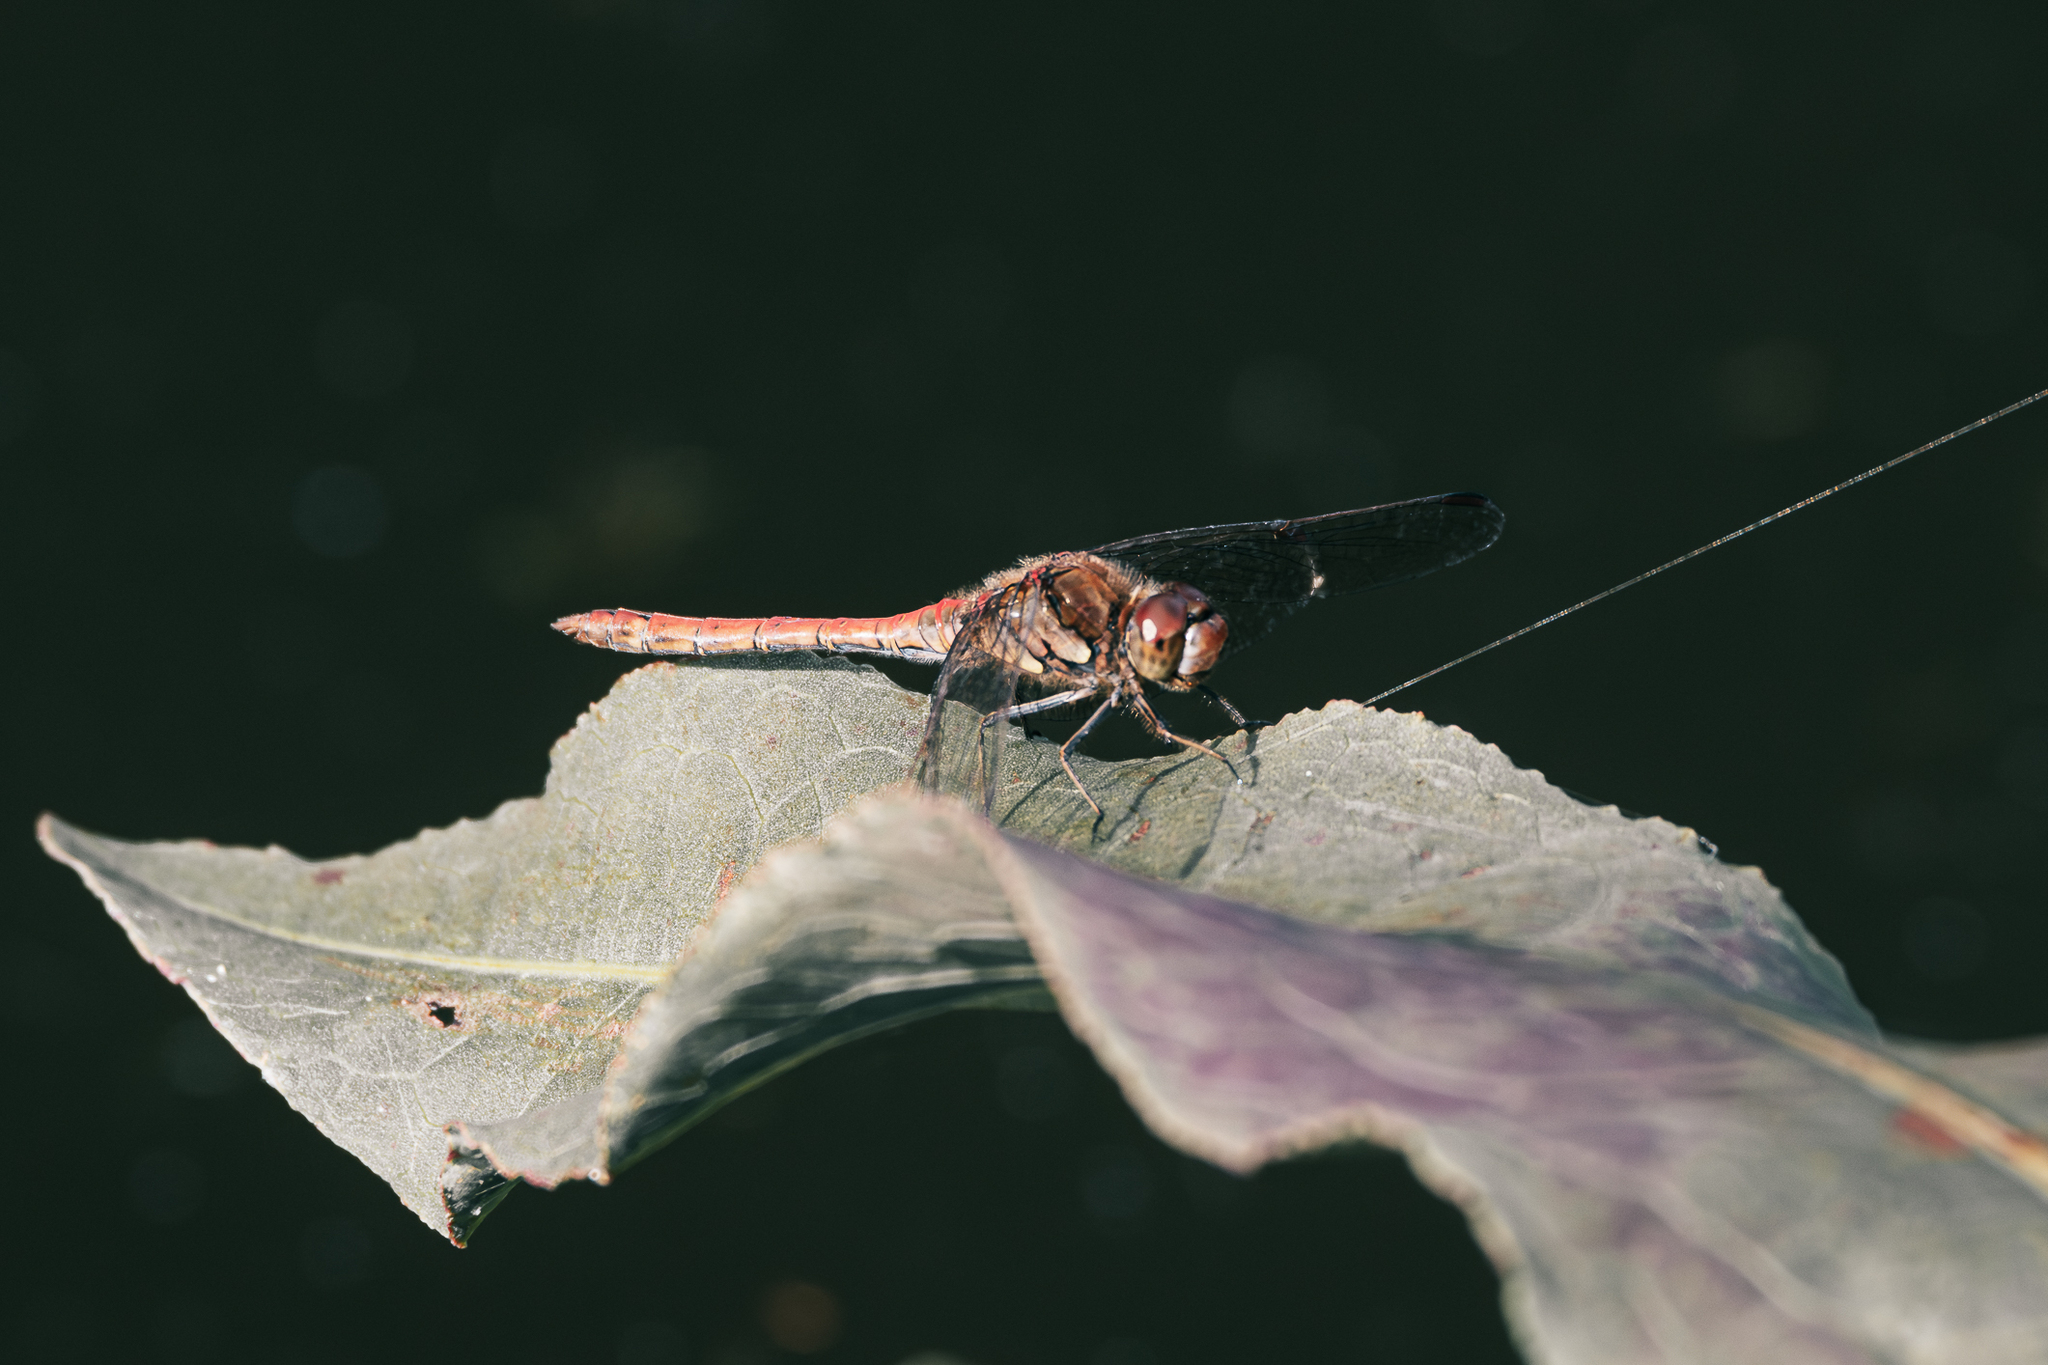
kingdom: Animalia
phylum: Arthropoda
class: Insecta
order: Odonata
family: Libellulidae
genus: Sympetrum
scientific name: Sympetrum striolatum
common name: Common darter
